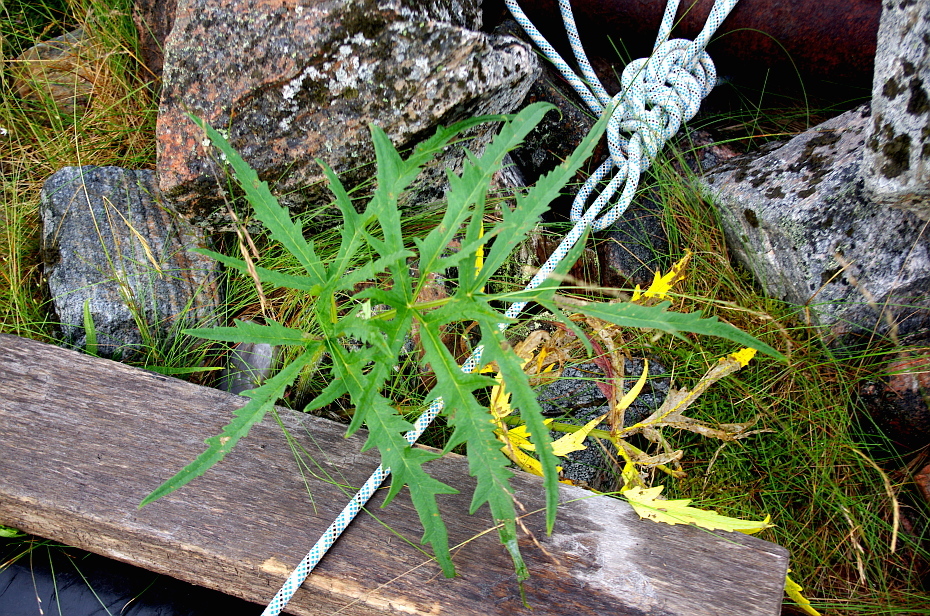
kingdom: Plantae
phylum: Tracheophyta
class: Magnoliopsida
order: Apiales
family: Apiaceae
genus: Heracleum
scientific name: Heracleum sphondylium
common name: Hogweed
